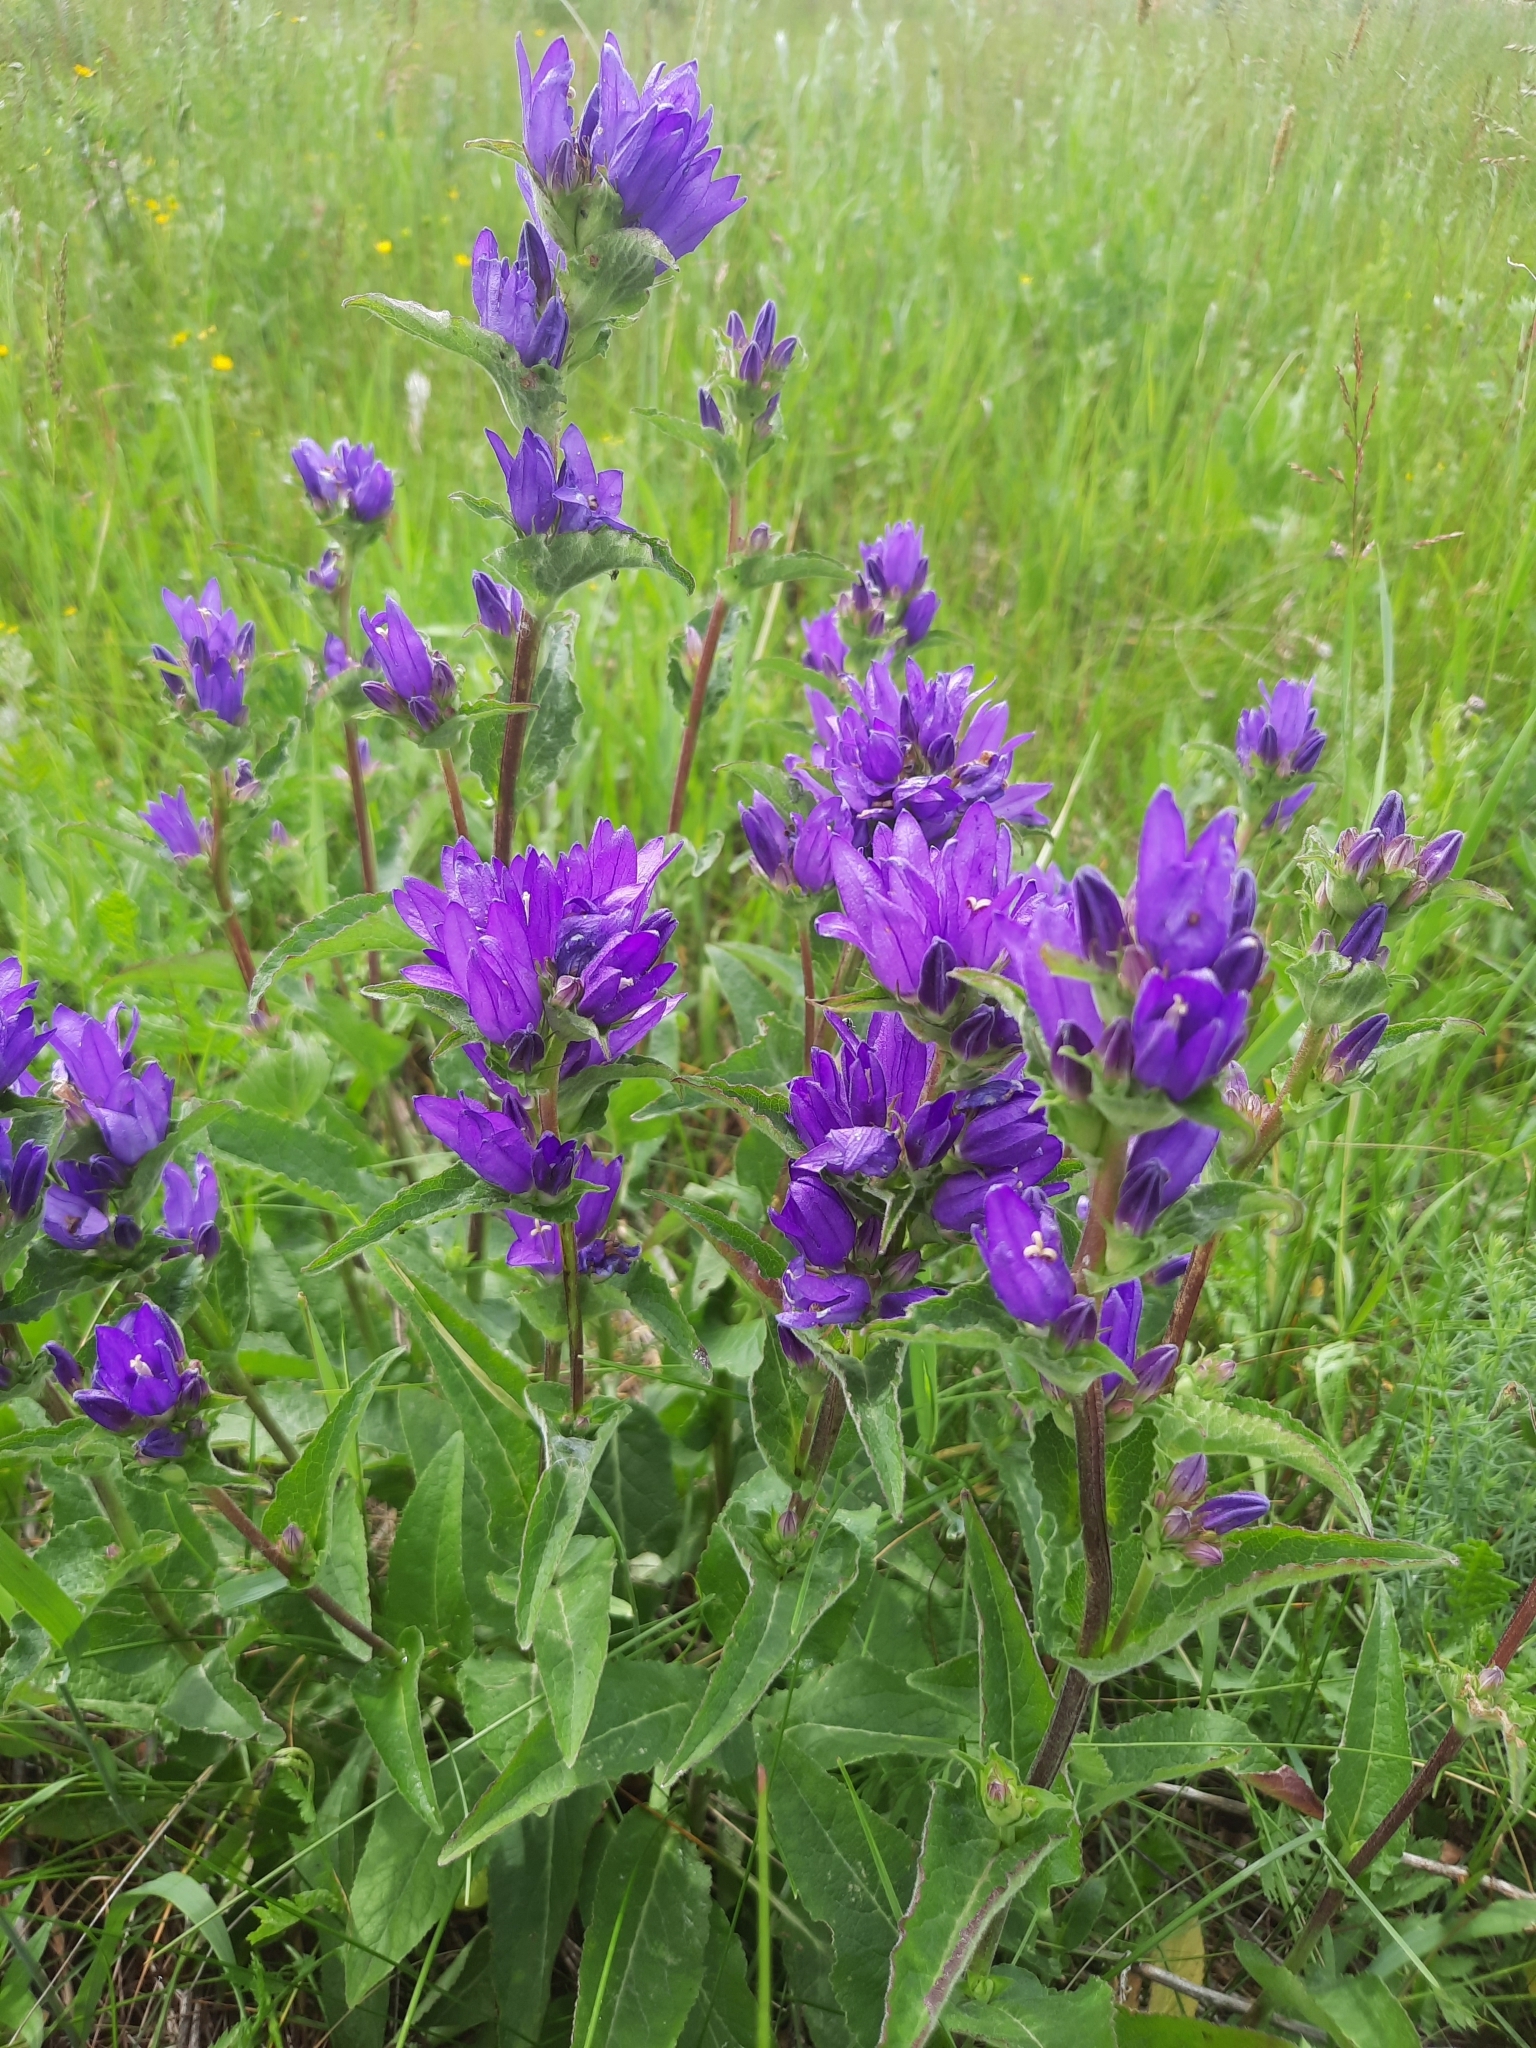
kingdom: Plantae
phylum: Tracheophyta
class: Magnoliopsida
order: Asterales
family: Campanulaceae
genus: Campanula
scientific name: Campanula glomerata
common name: Clustered bellflower
